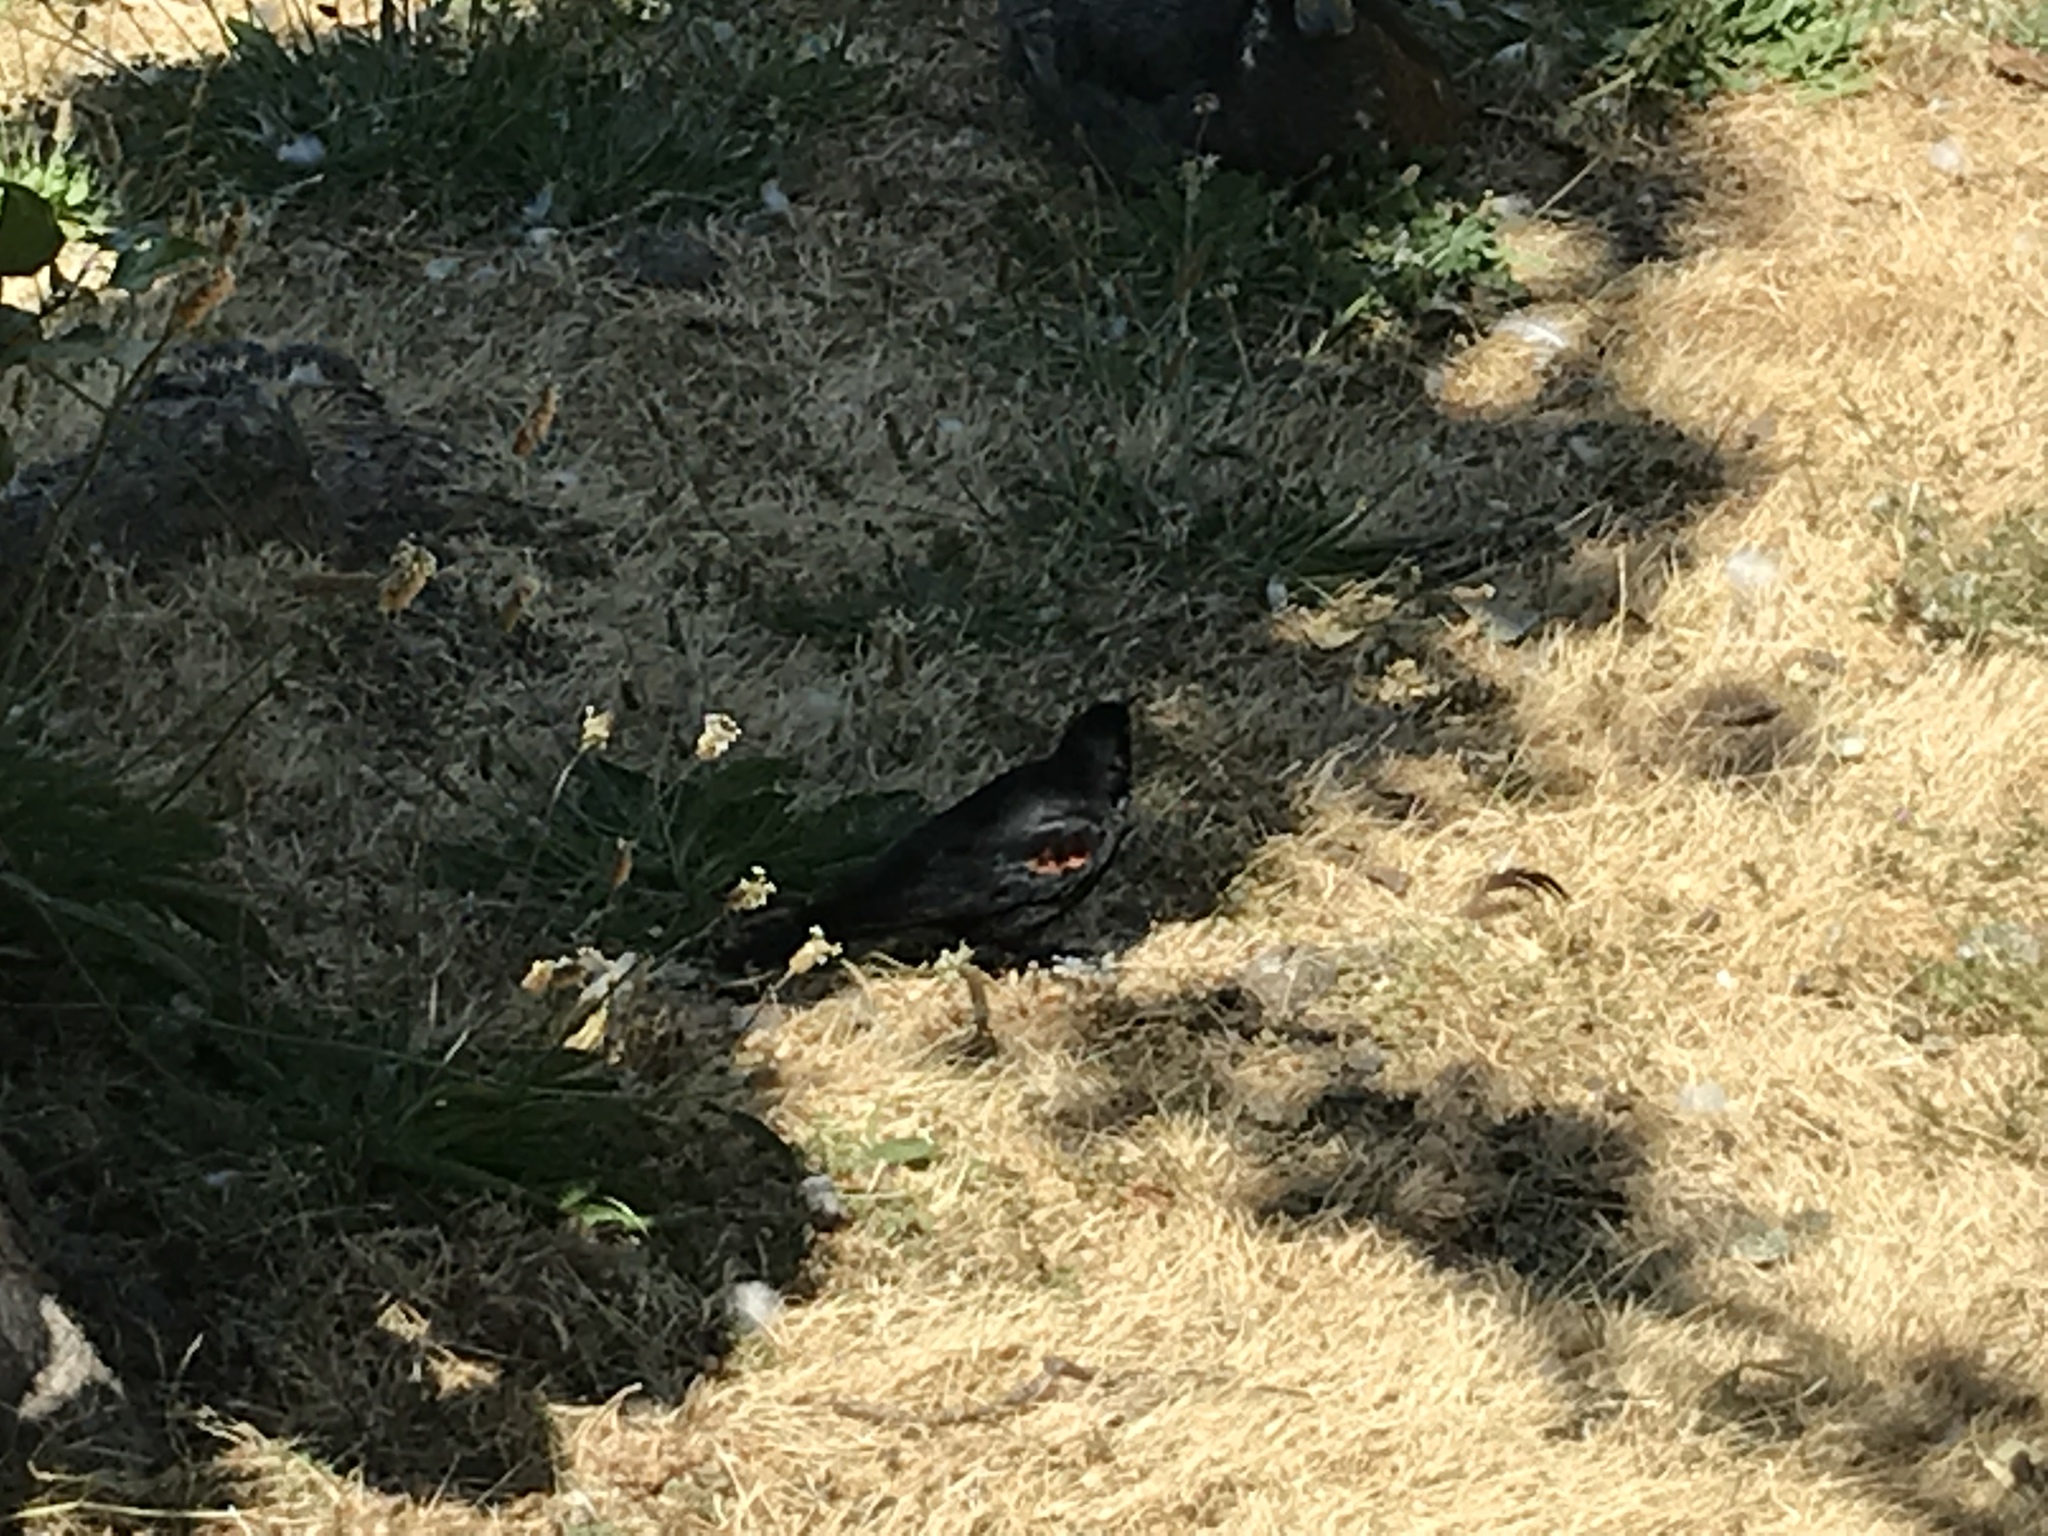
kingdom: Animalia
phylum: Chordata
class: Aves
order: Passeriformes
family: Icteridae
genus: Agelaius
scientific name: Agelaius phoeniceus
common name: Red-winged blackbird
